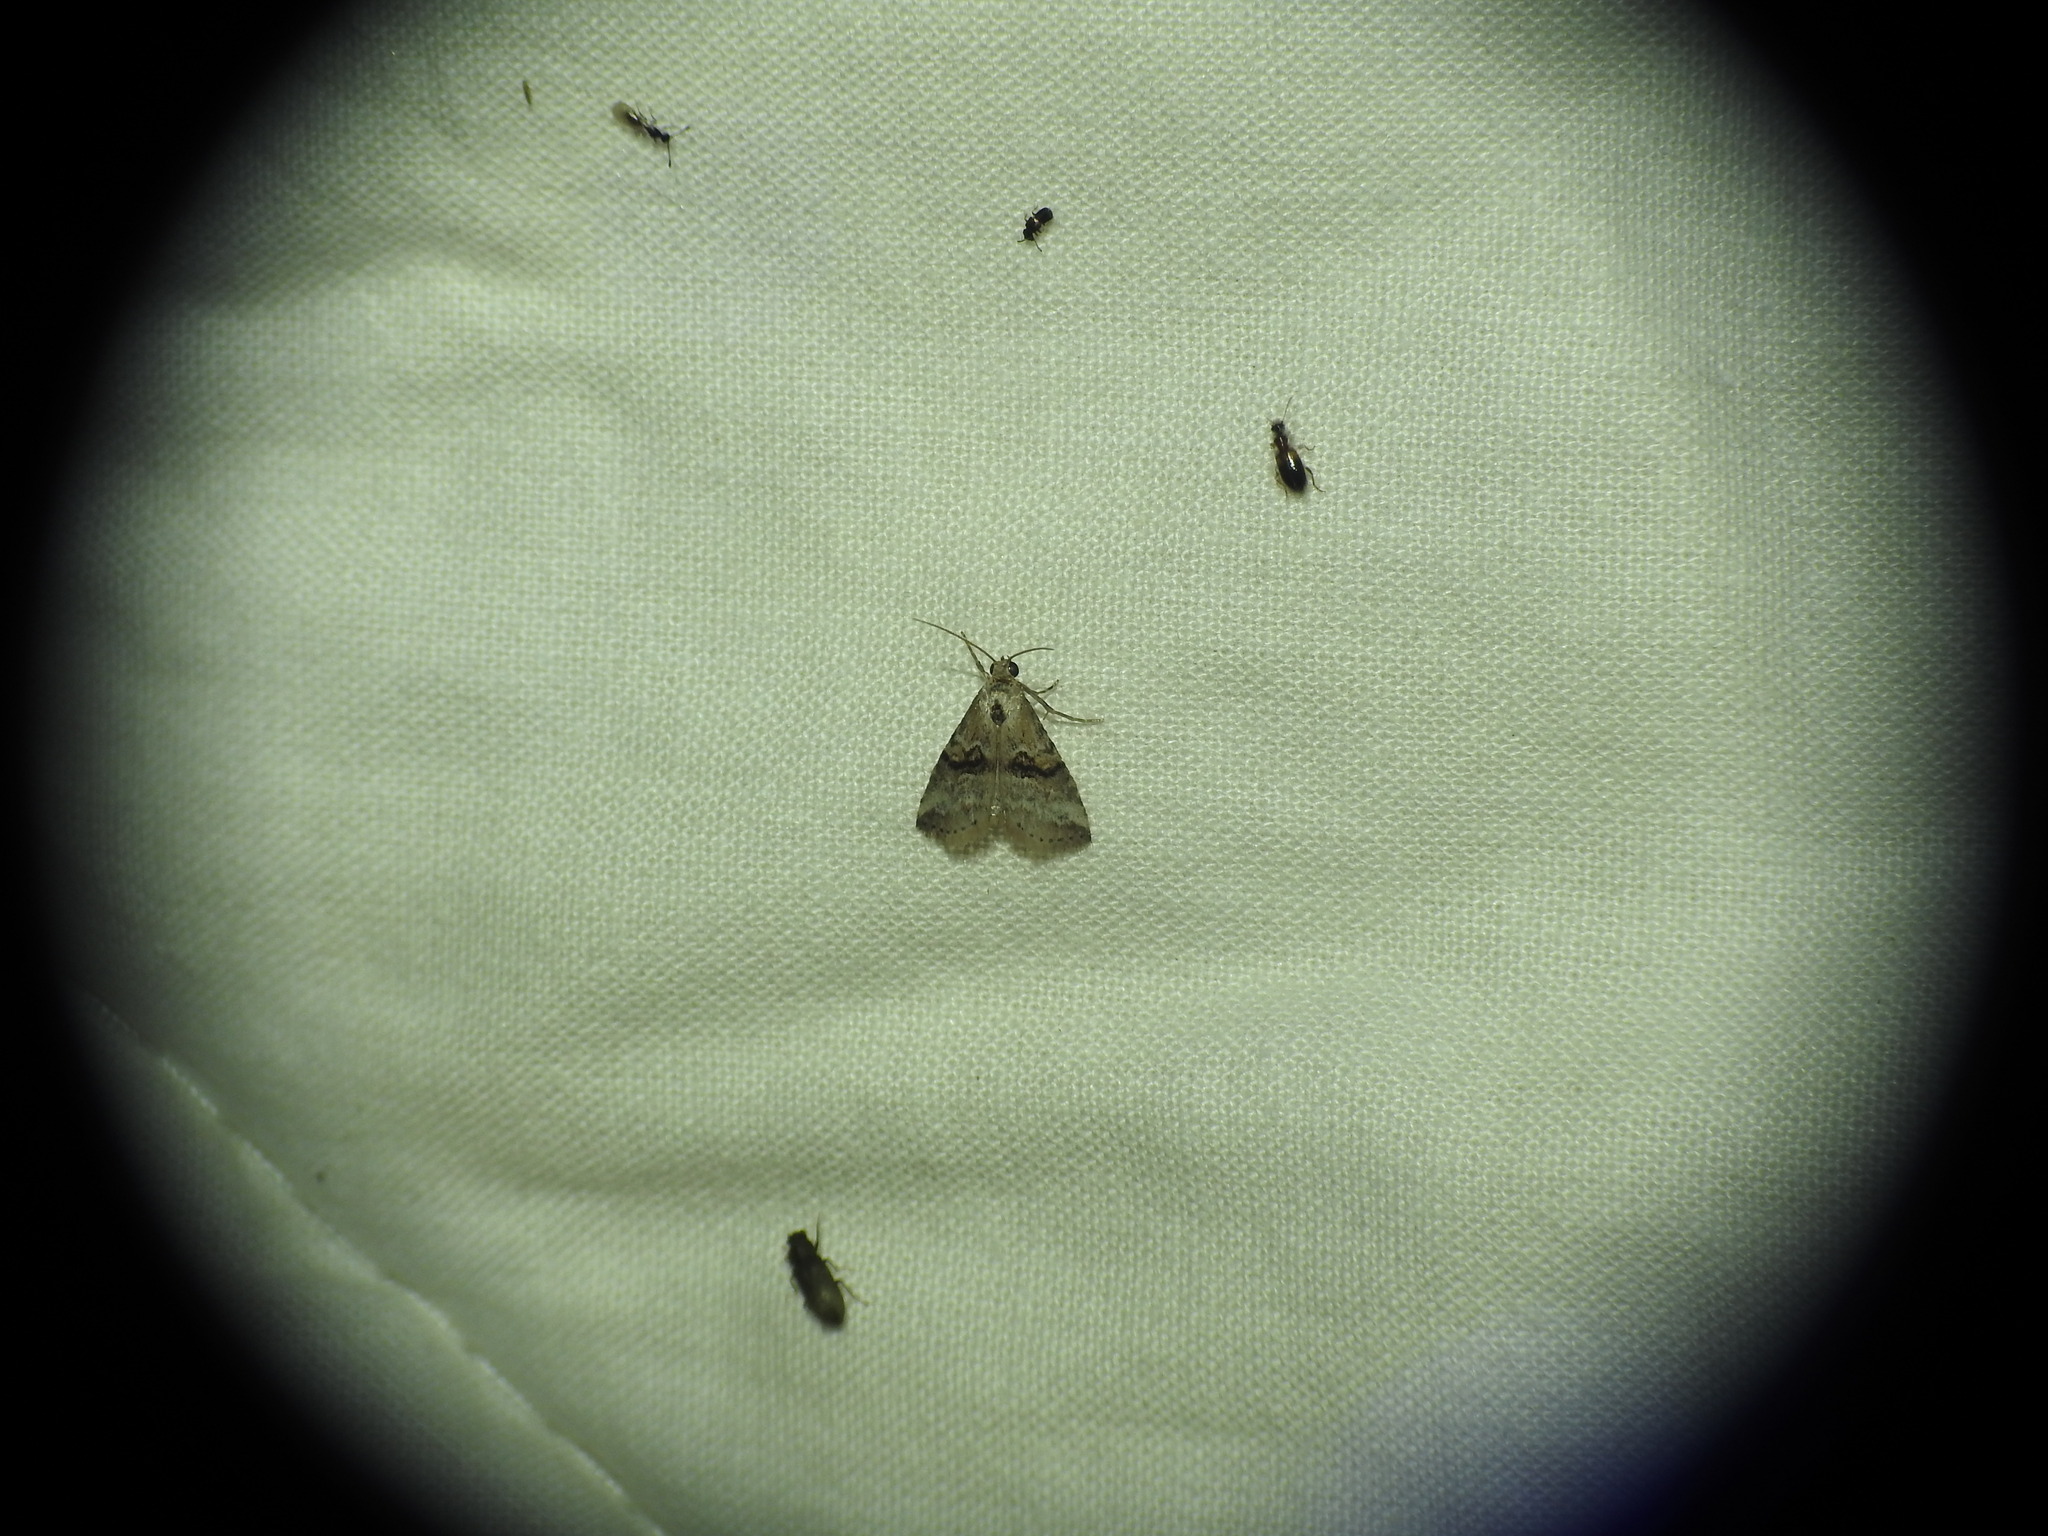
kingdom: Animalia
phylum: Arthropoda
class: Insecta
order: Lepidoptera
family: Erebidae
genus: Zebeeba
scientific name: Zebeeba falsalis
